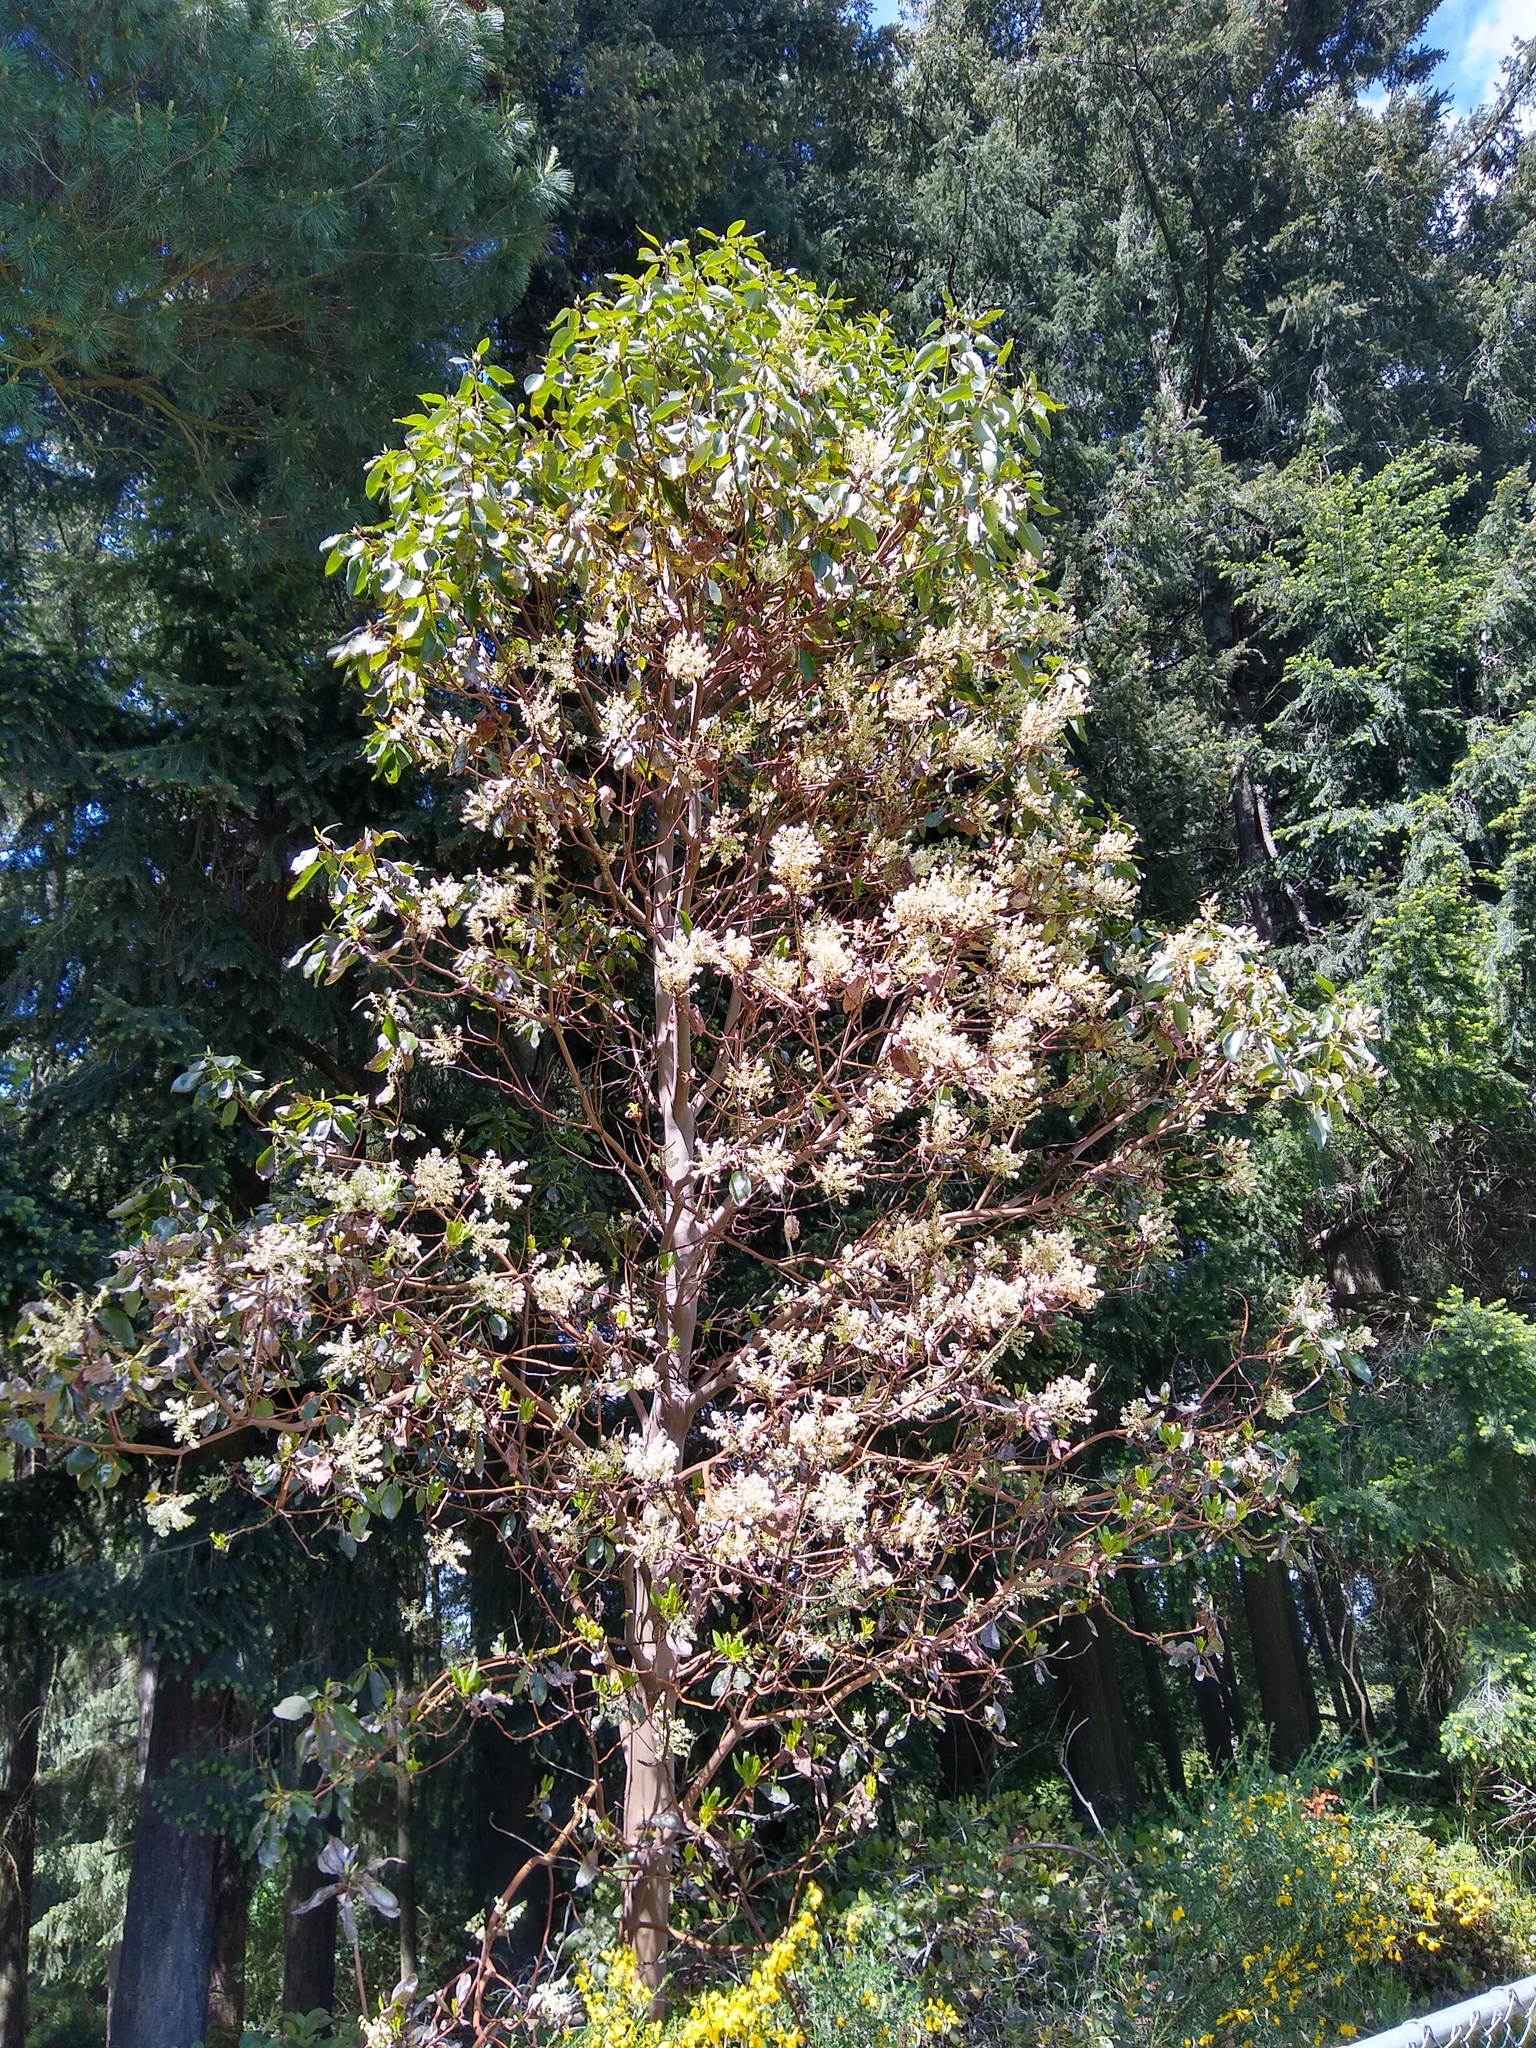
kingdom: Plantae
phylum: Tracheophyta
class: Magnoliopsida
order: Ericales
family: Ericaceae
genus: Arbutus
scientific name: Arbutus menziesii
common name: Pacific madrone
